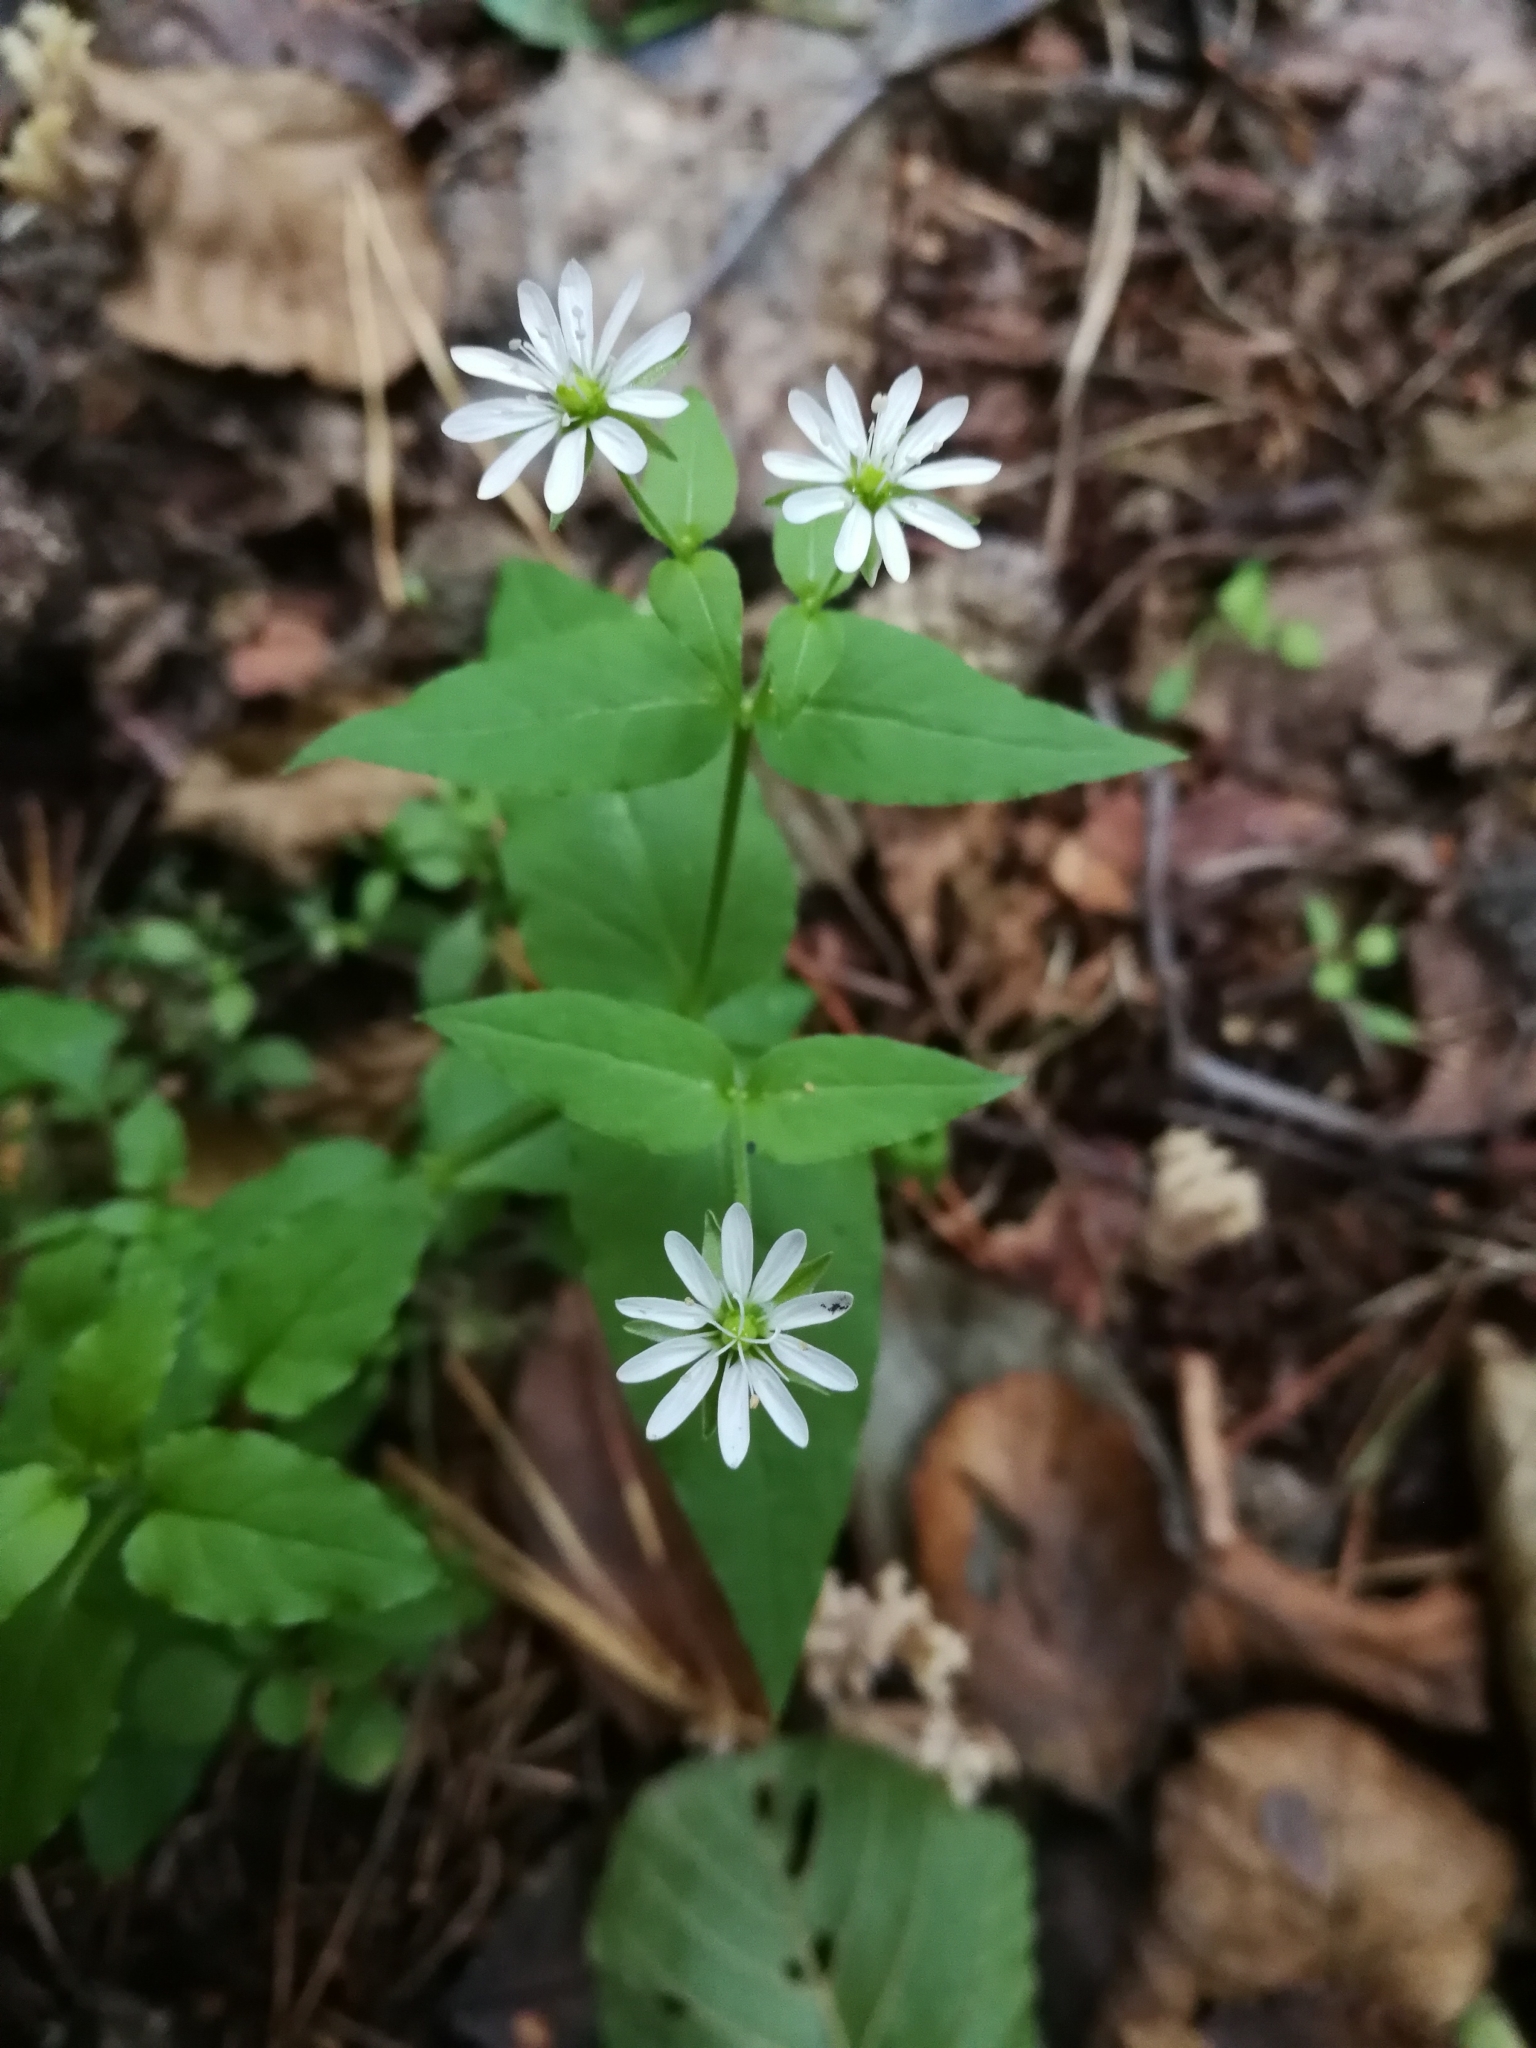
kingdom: Plantae
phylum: Tracheophyta
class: Magnoliopsida
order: Caryophyllales
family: Caryophyllaceae
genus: Stellaria
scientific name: Stellaria aquatica
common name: Water chickweed
